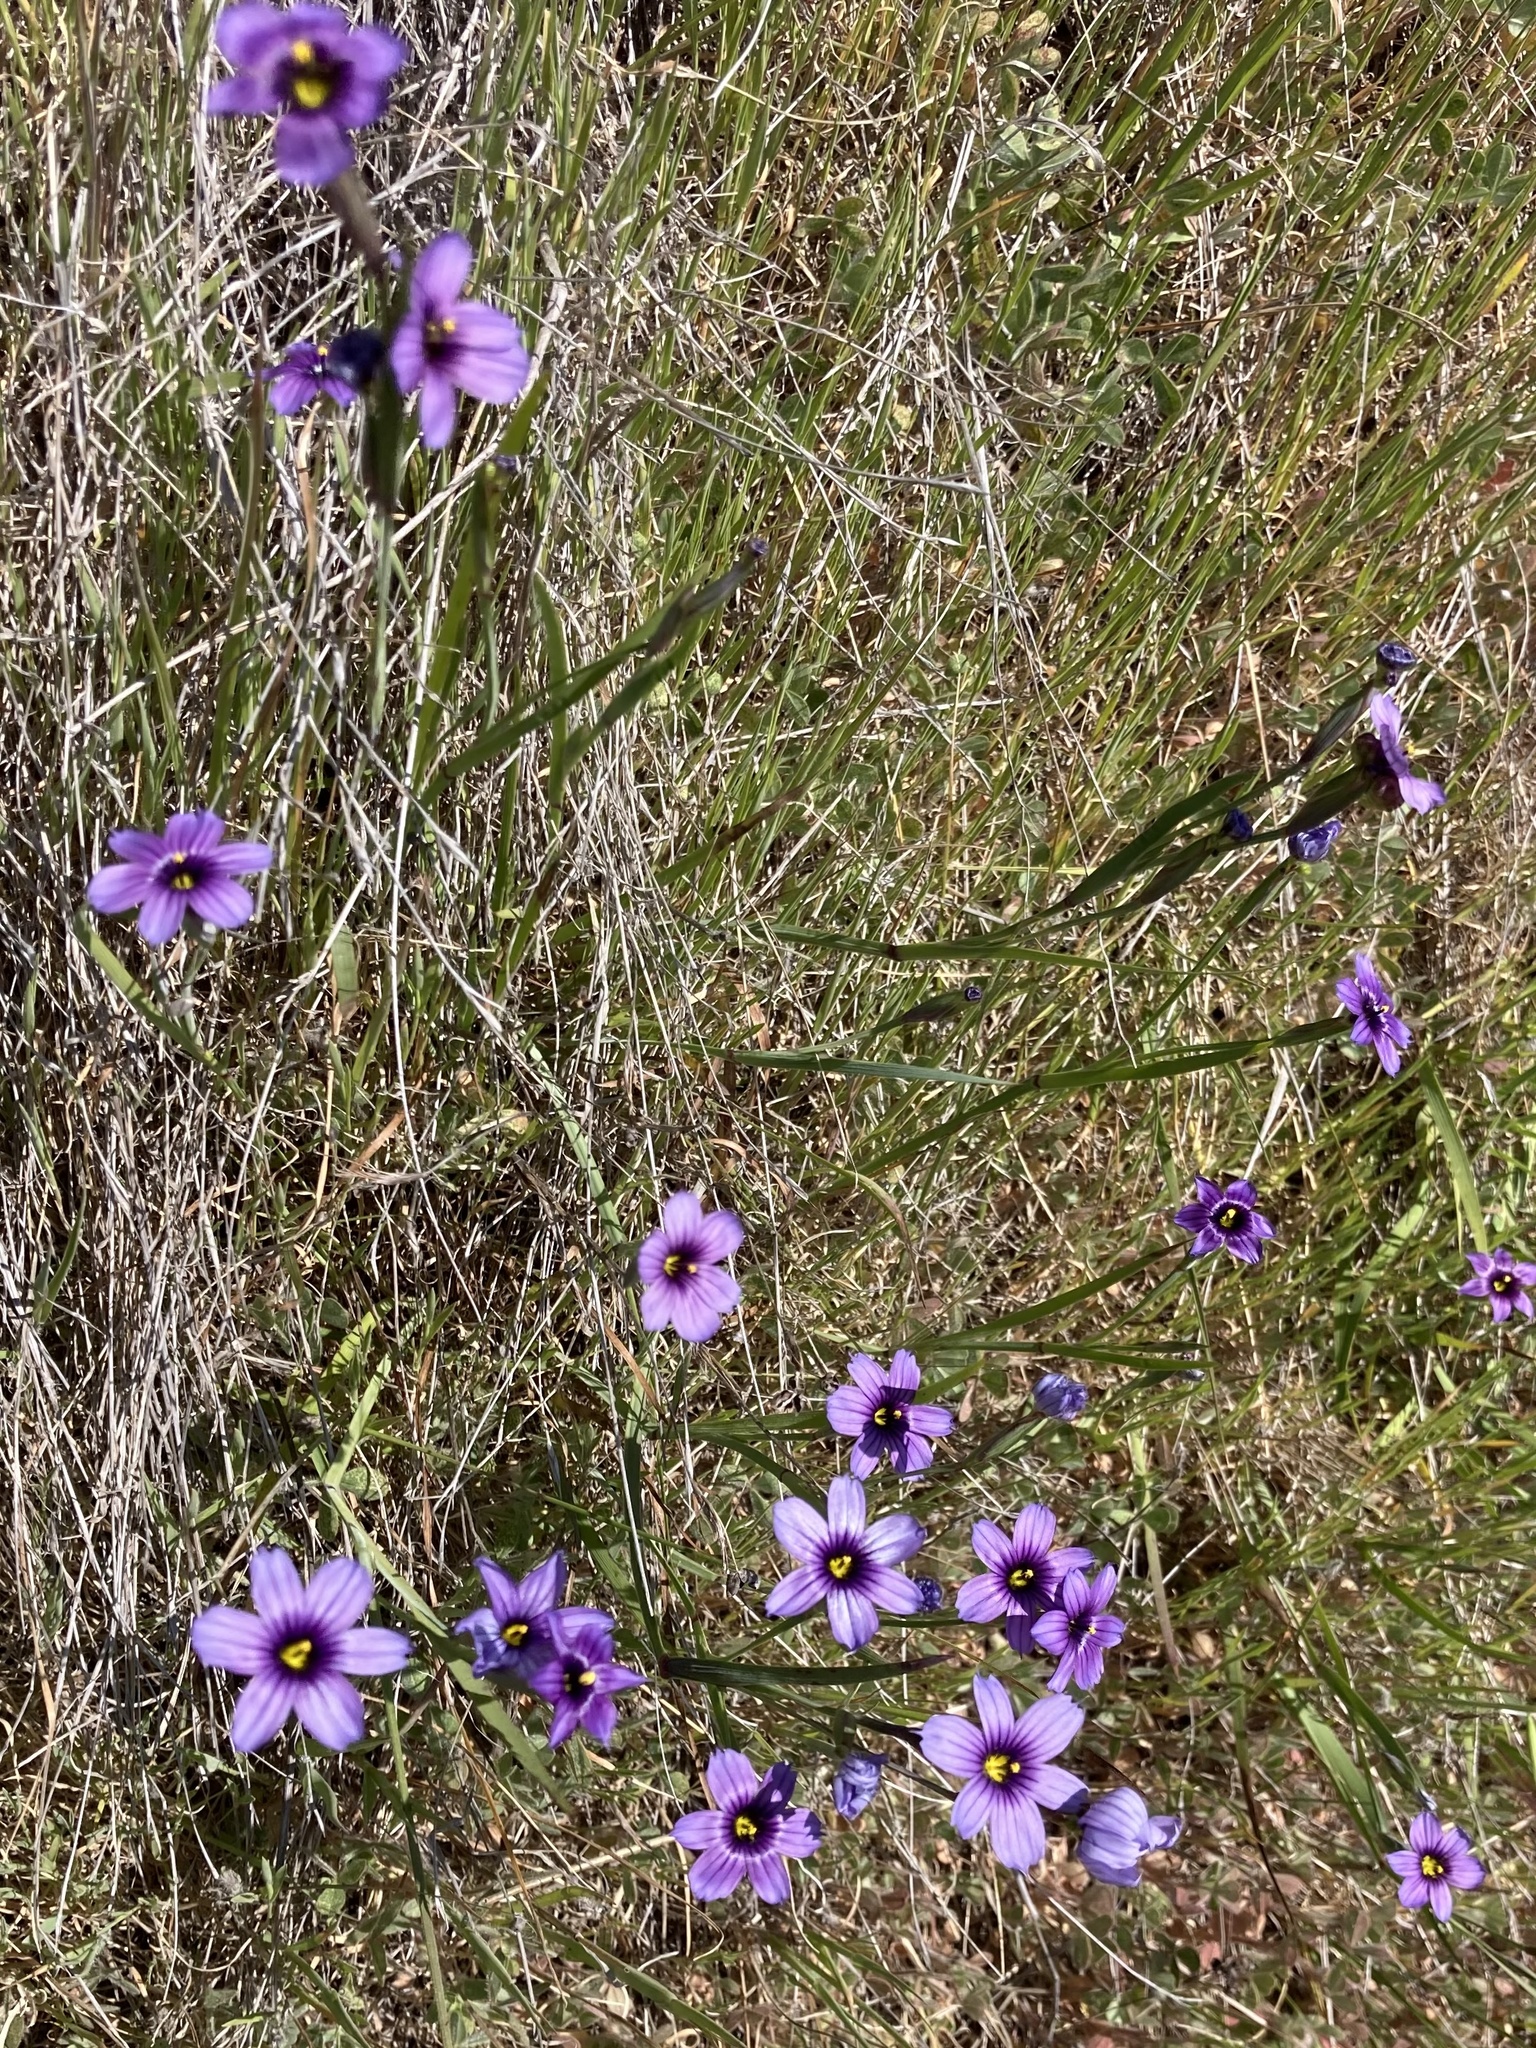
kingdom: Plantae
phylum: Tracheophyta
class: Liliopsida
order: Asparagales
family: Iridaceae
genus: Sisyrinchium
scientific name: Sisyrinchium bellum
